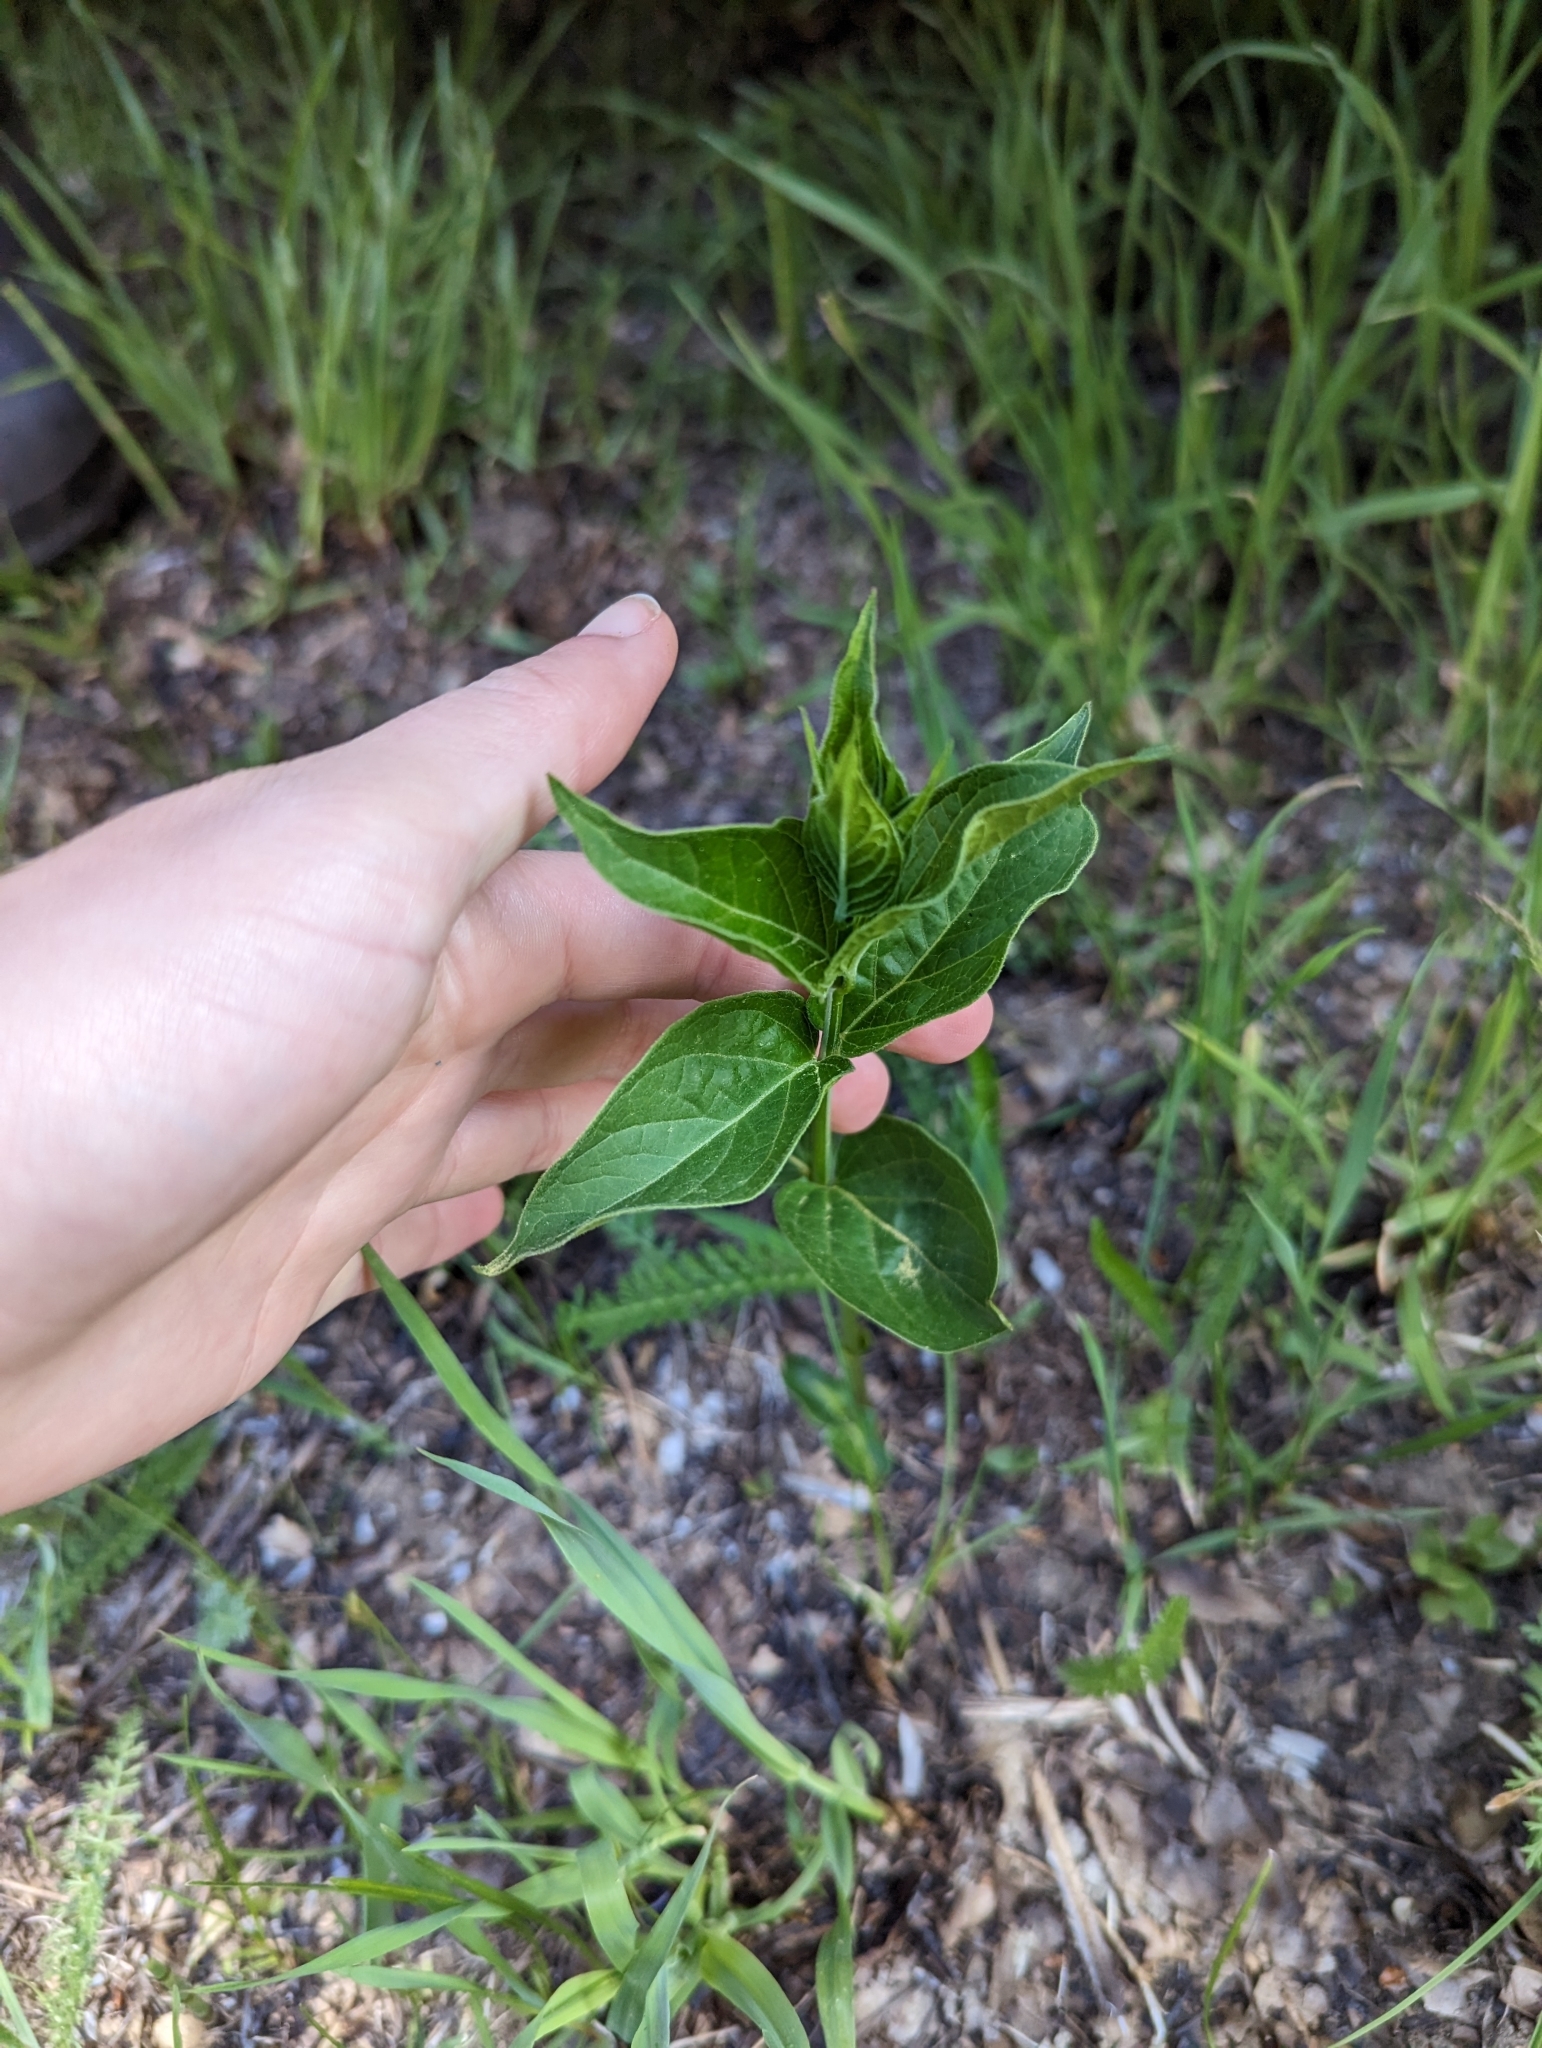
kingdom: Plantae
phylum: Tracheophyta
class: Magnoliopsida
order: Gentianales
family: Apocynaceae
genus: Vincetoxicum
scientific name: Vincetoxicum rossicum
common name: Dog-strangling vine
